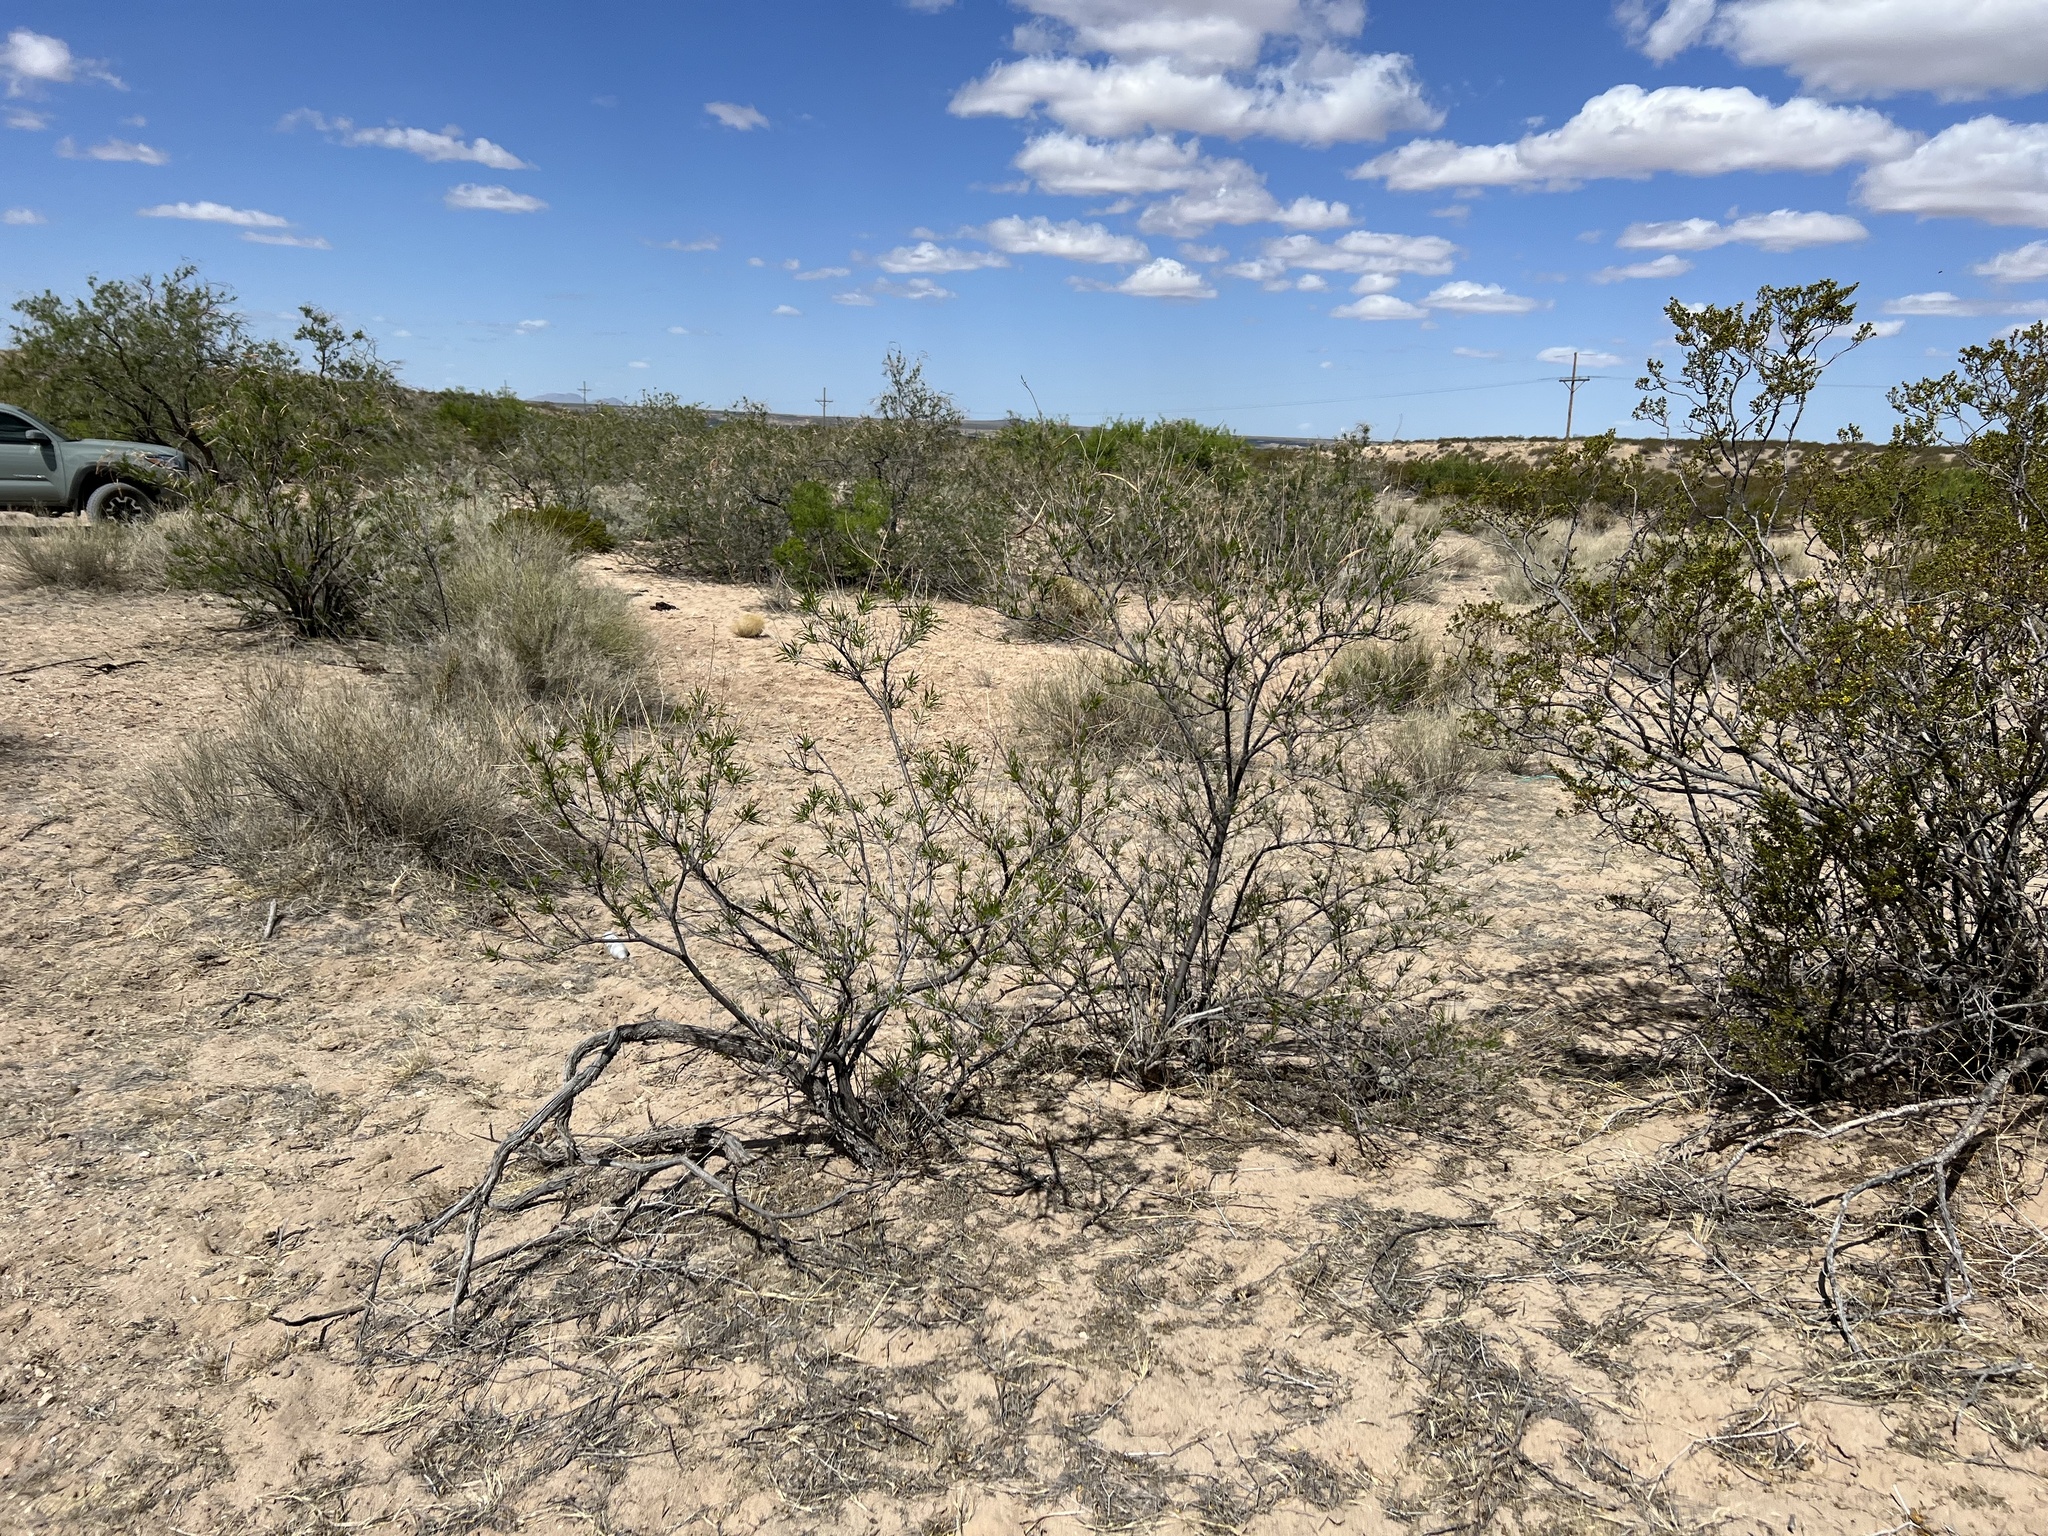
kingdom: Plantae
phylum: Tracheophyta
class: Magnoliopsida
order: Zygophyllales
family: Zygophyllaceae
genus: Larrea
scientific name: Larrea tridentata
